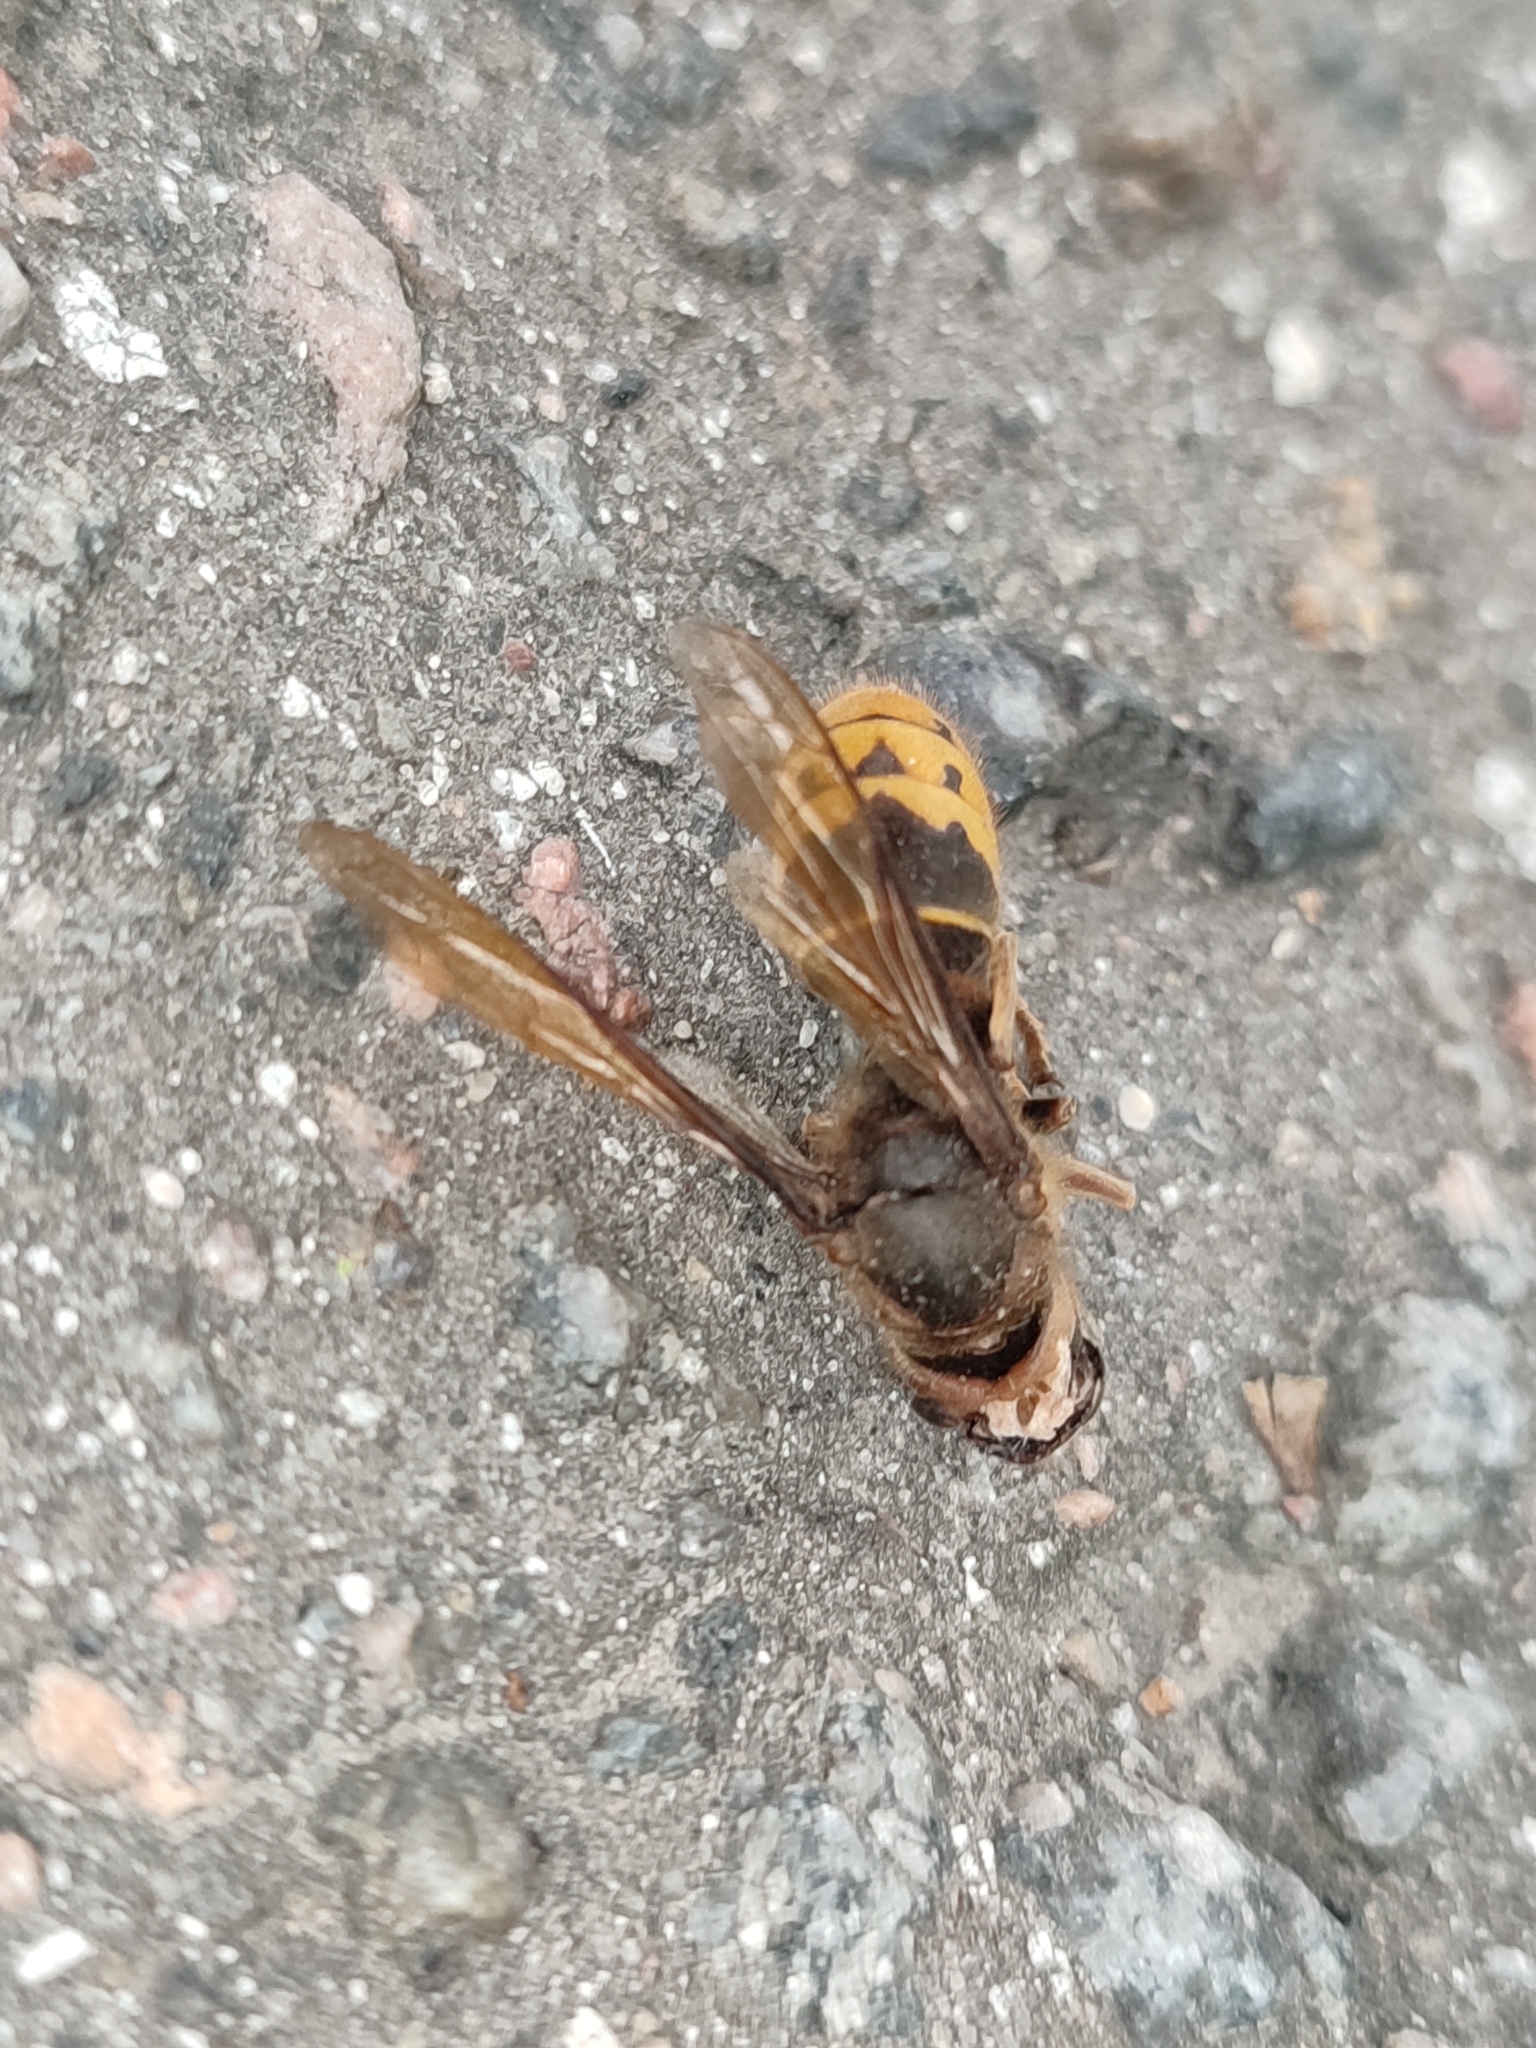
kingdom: Animalia
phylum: Arthropoda
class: Insecta
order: Hymenoptera
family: Vespidae
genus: Vespa
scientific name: Vespa crabro
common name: Hornet
